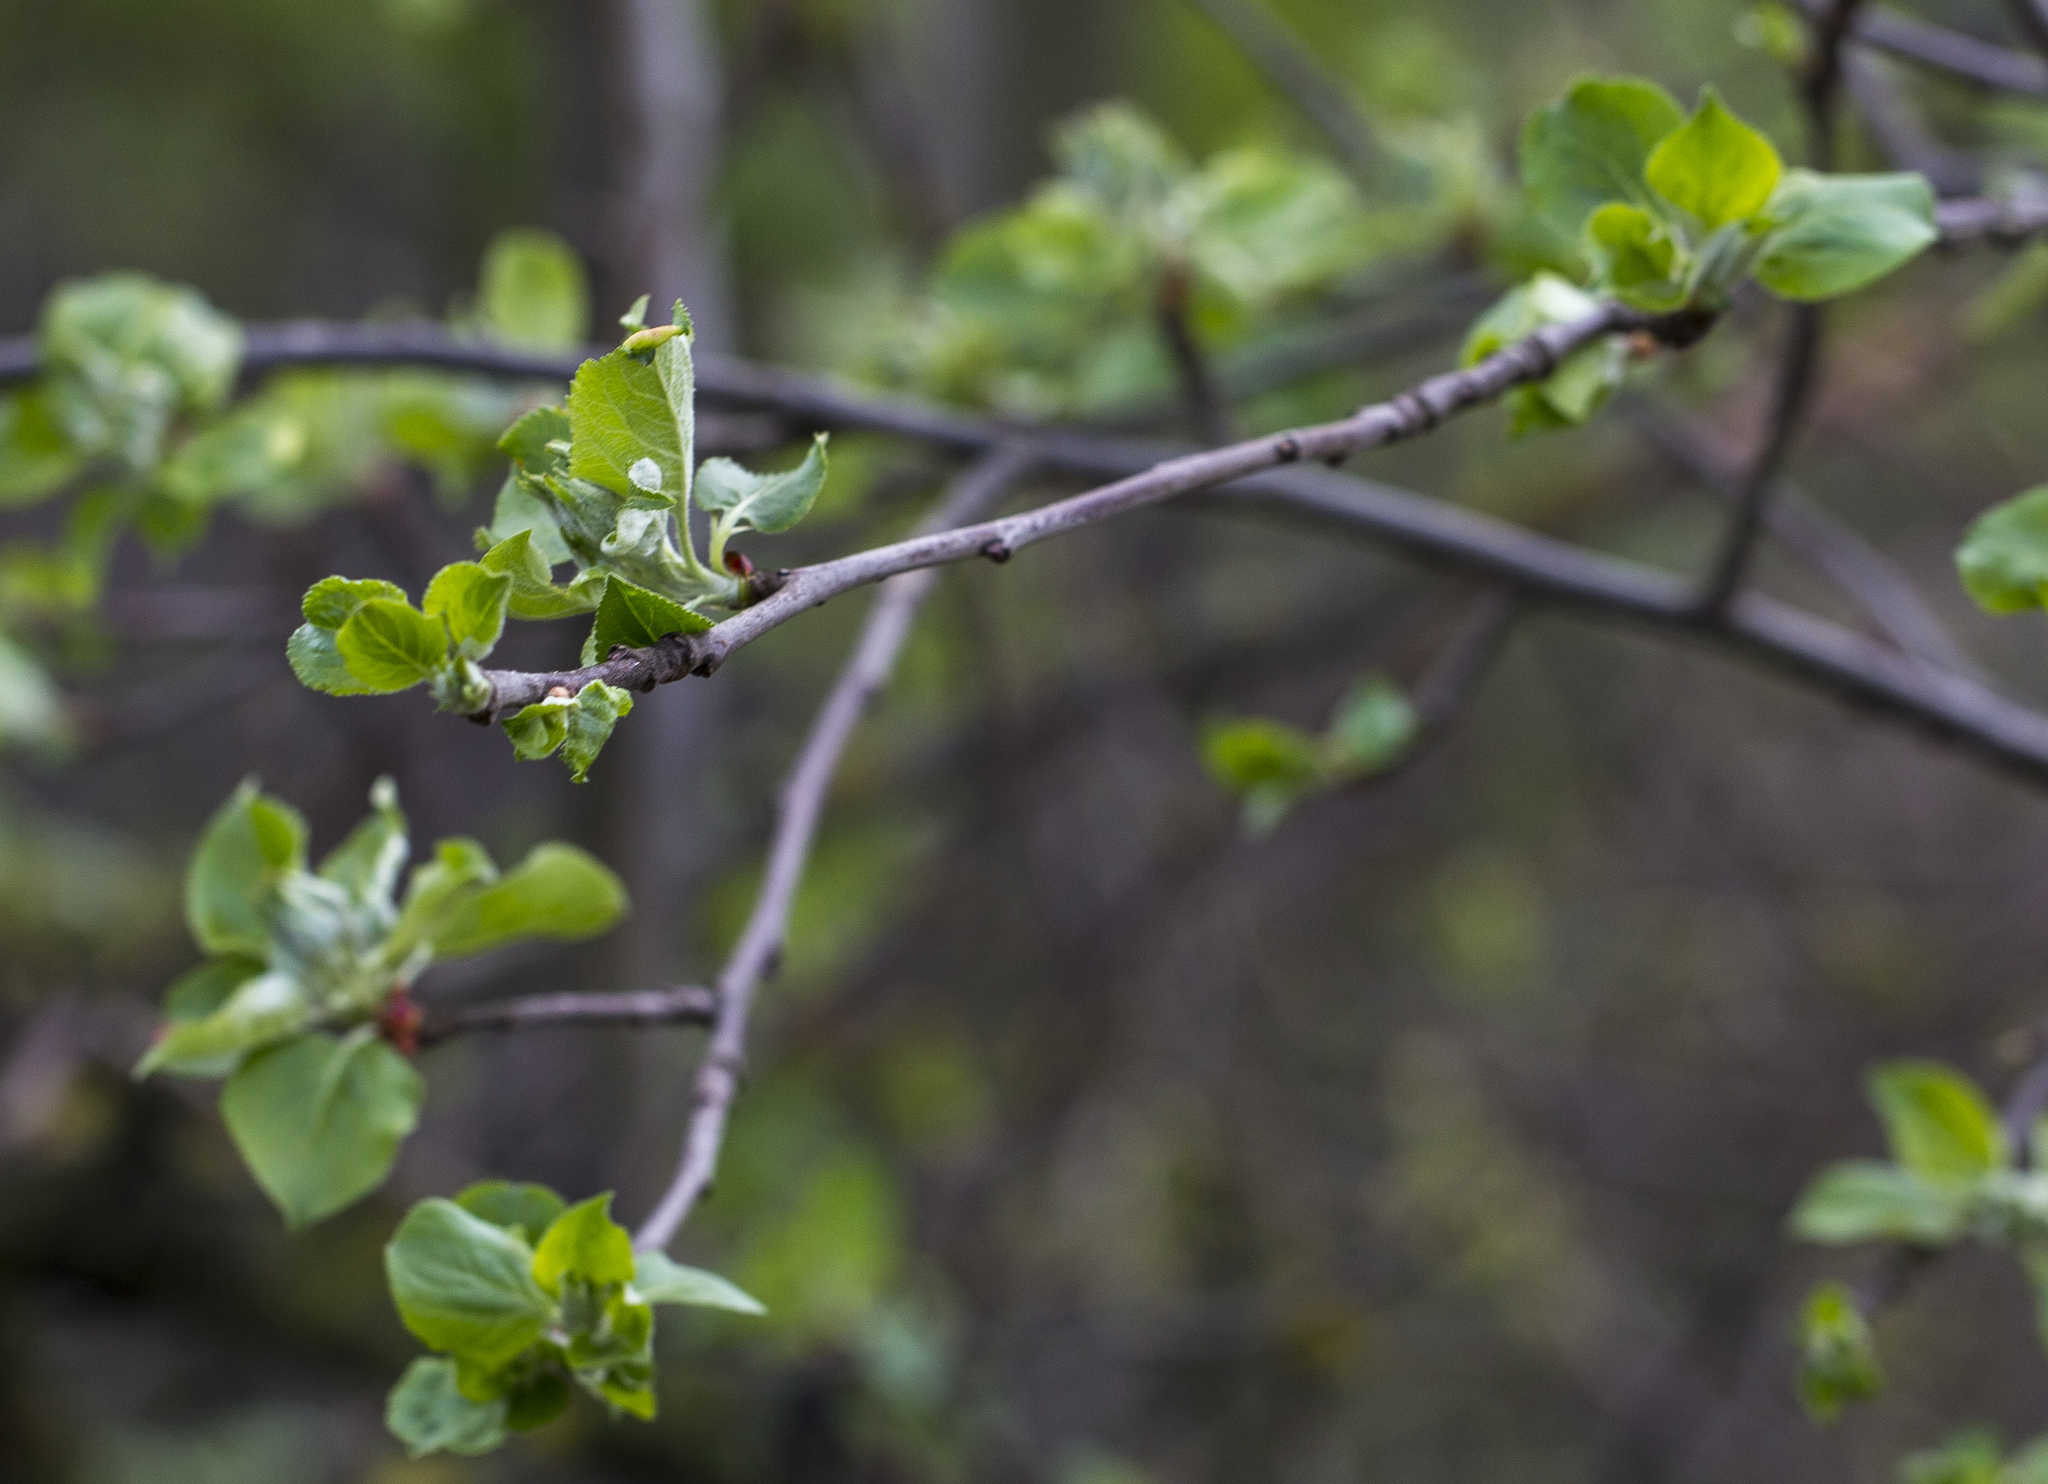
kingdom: Plantae
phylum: Tracheophyta
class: Magnoliopsida
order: Rosales
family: Rosaceae
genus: Malus
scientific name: Malus domestica
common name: Apple
